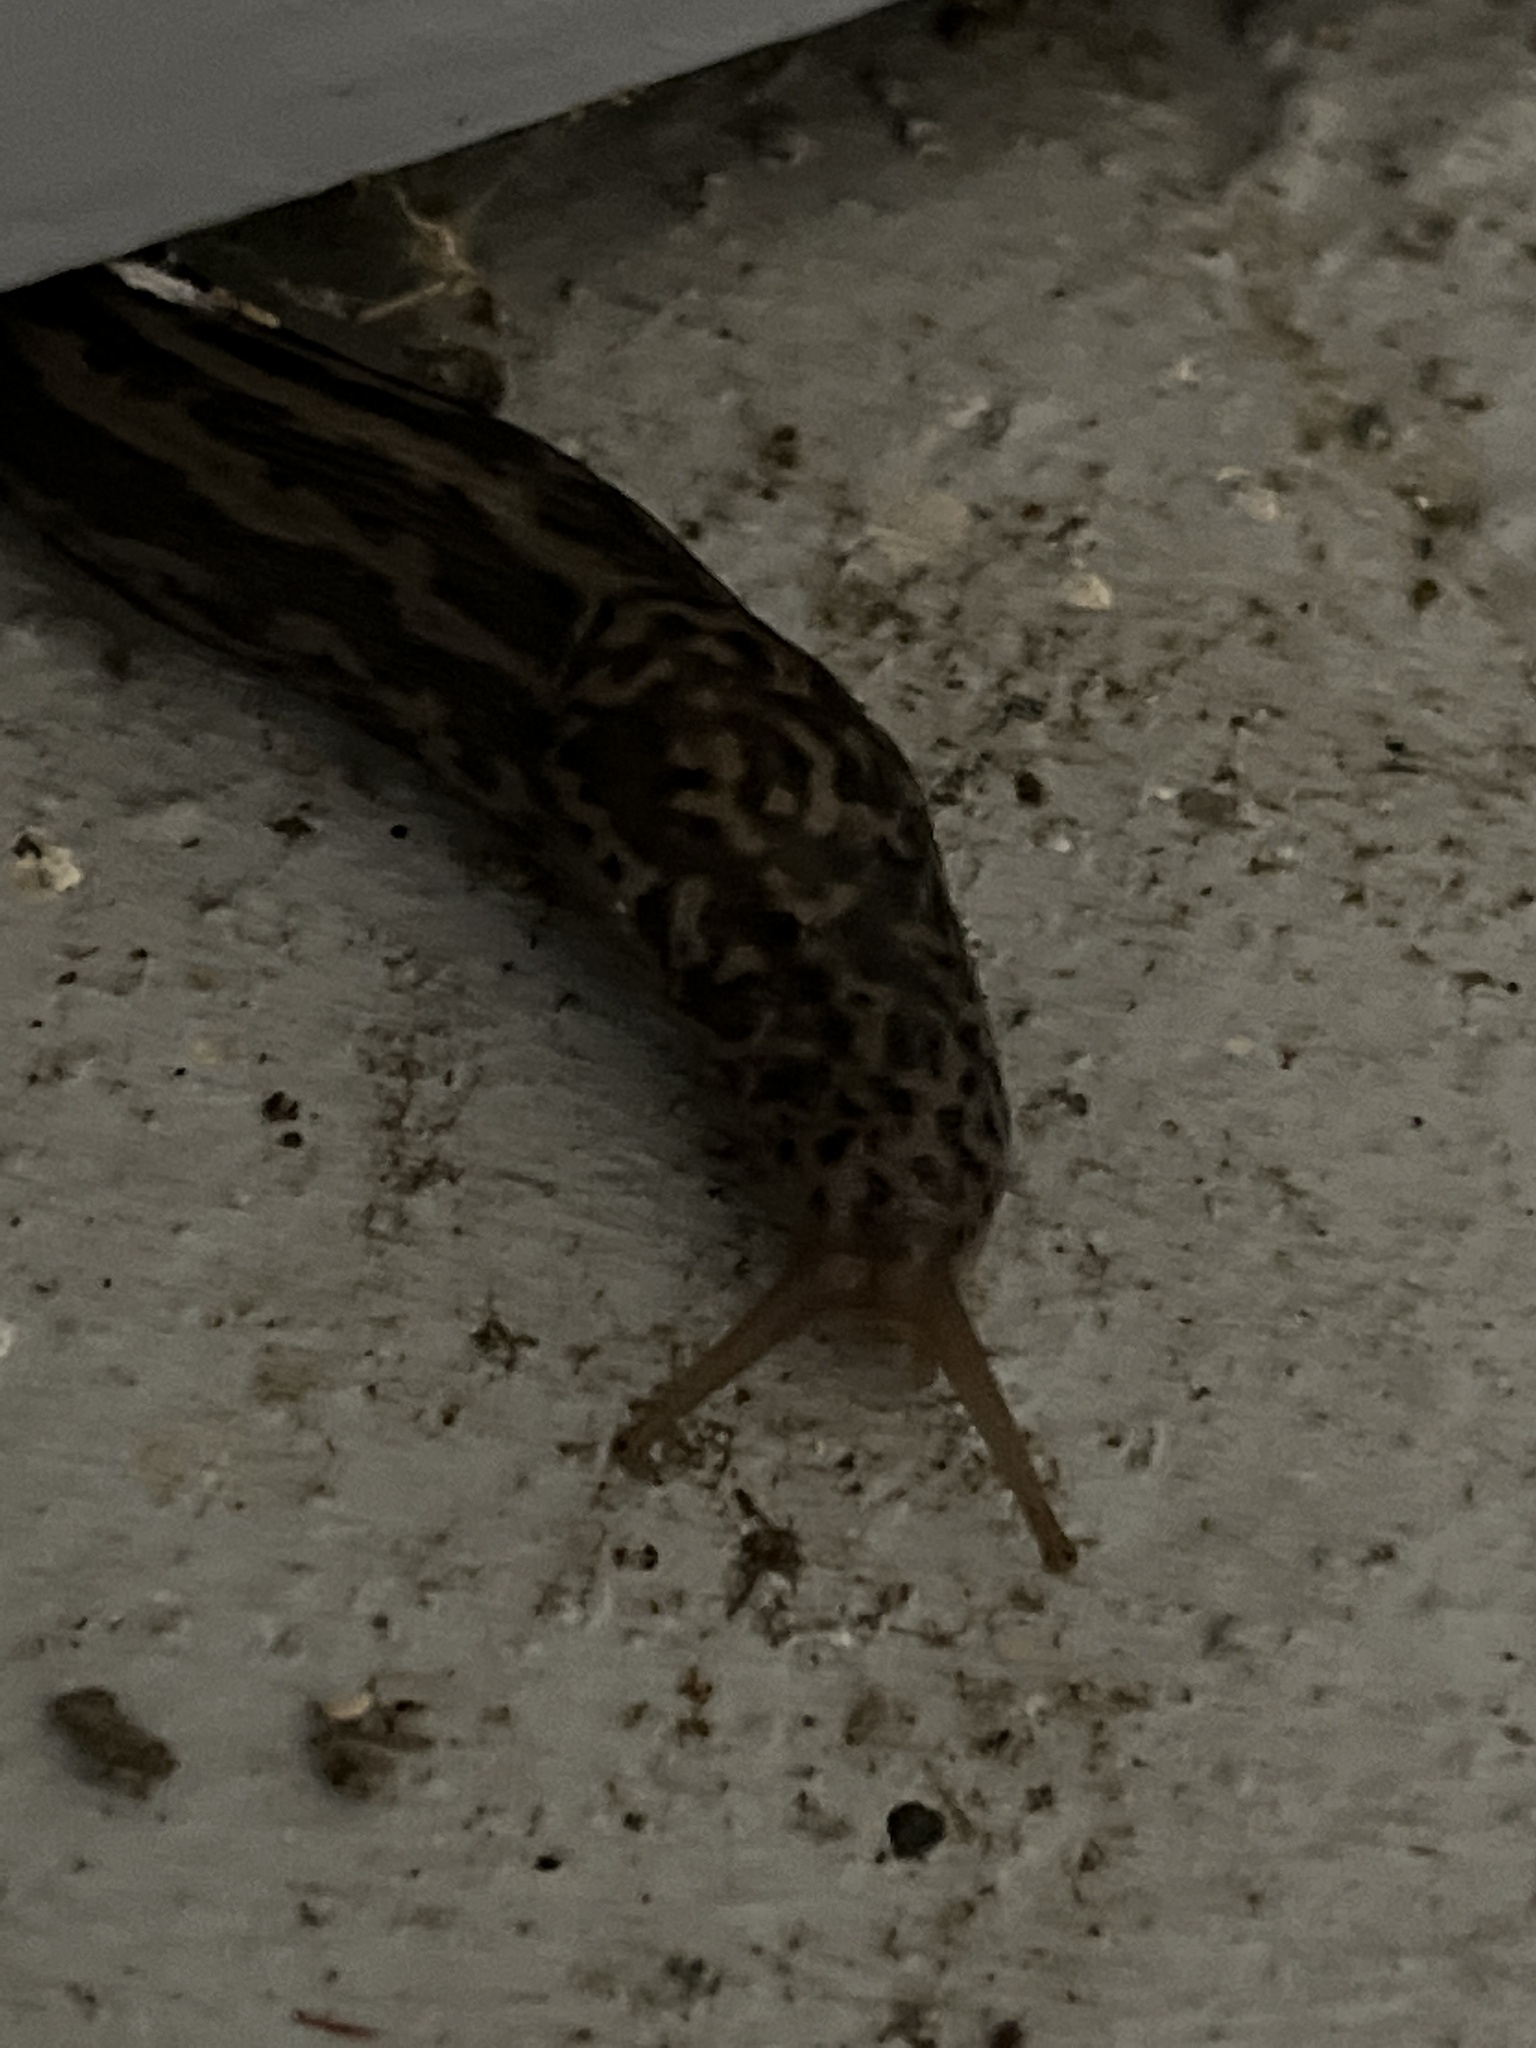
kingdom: Animalia
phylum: Mollusca
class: Gastropoda
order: Stylommatophora
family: Limacidae
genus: Limax
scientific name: Limax maximus
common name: Great grey slug
